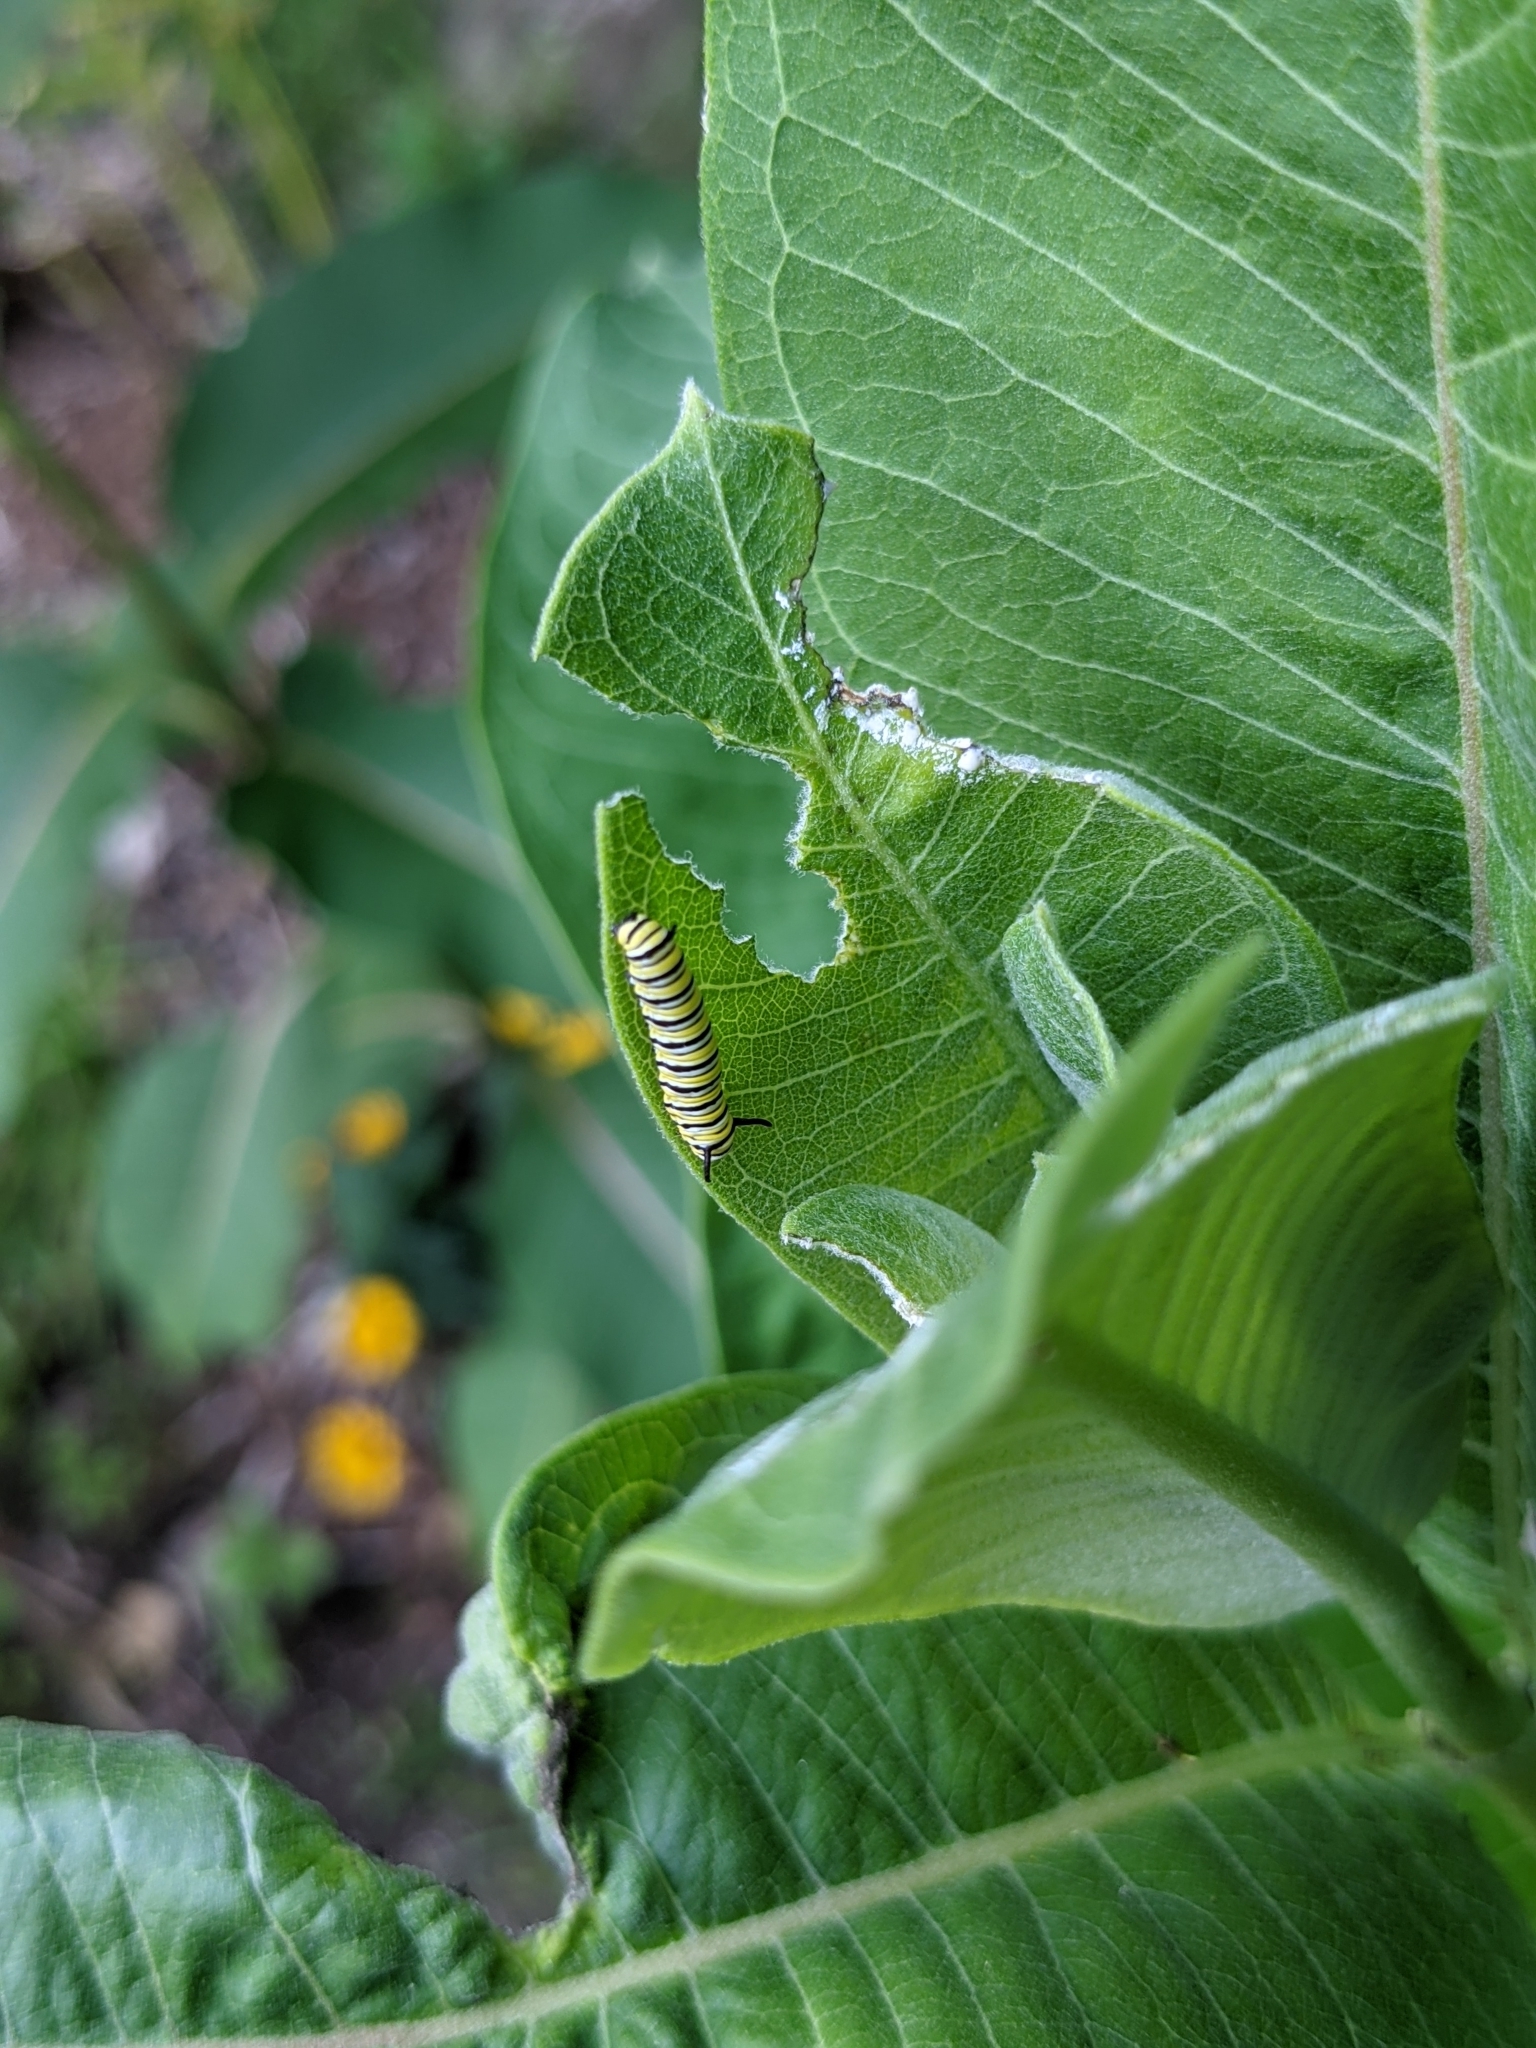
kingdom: Animalia
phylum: Arthropoda
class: Insecta
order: Lepidoptera
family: Nymphalidae
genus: Danaus
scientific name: Danaus plexippus
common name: Monarch
